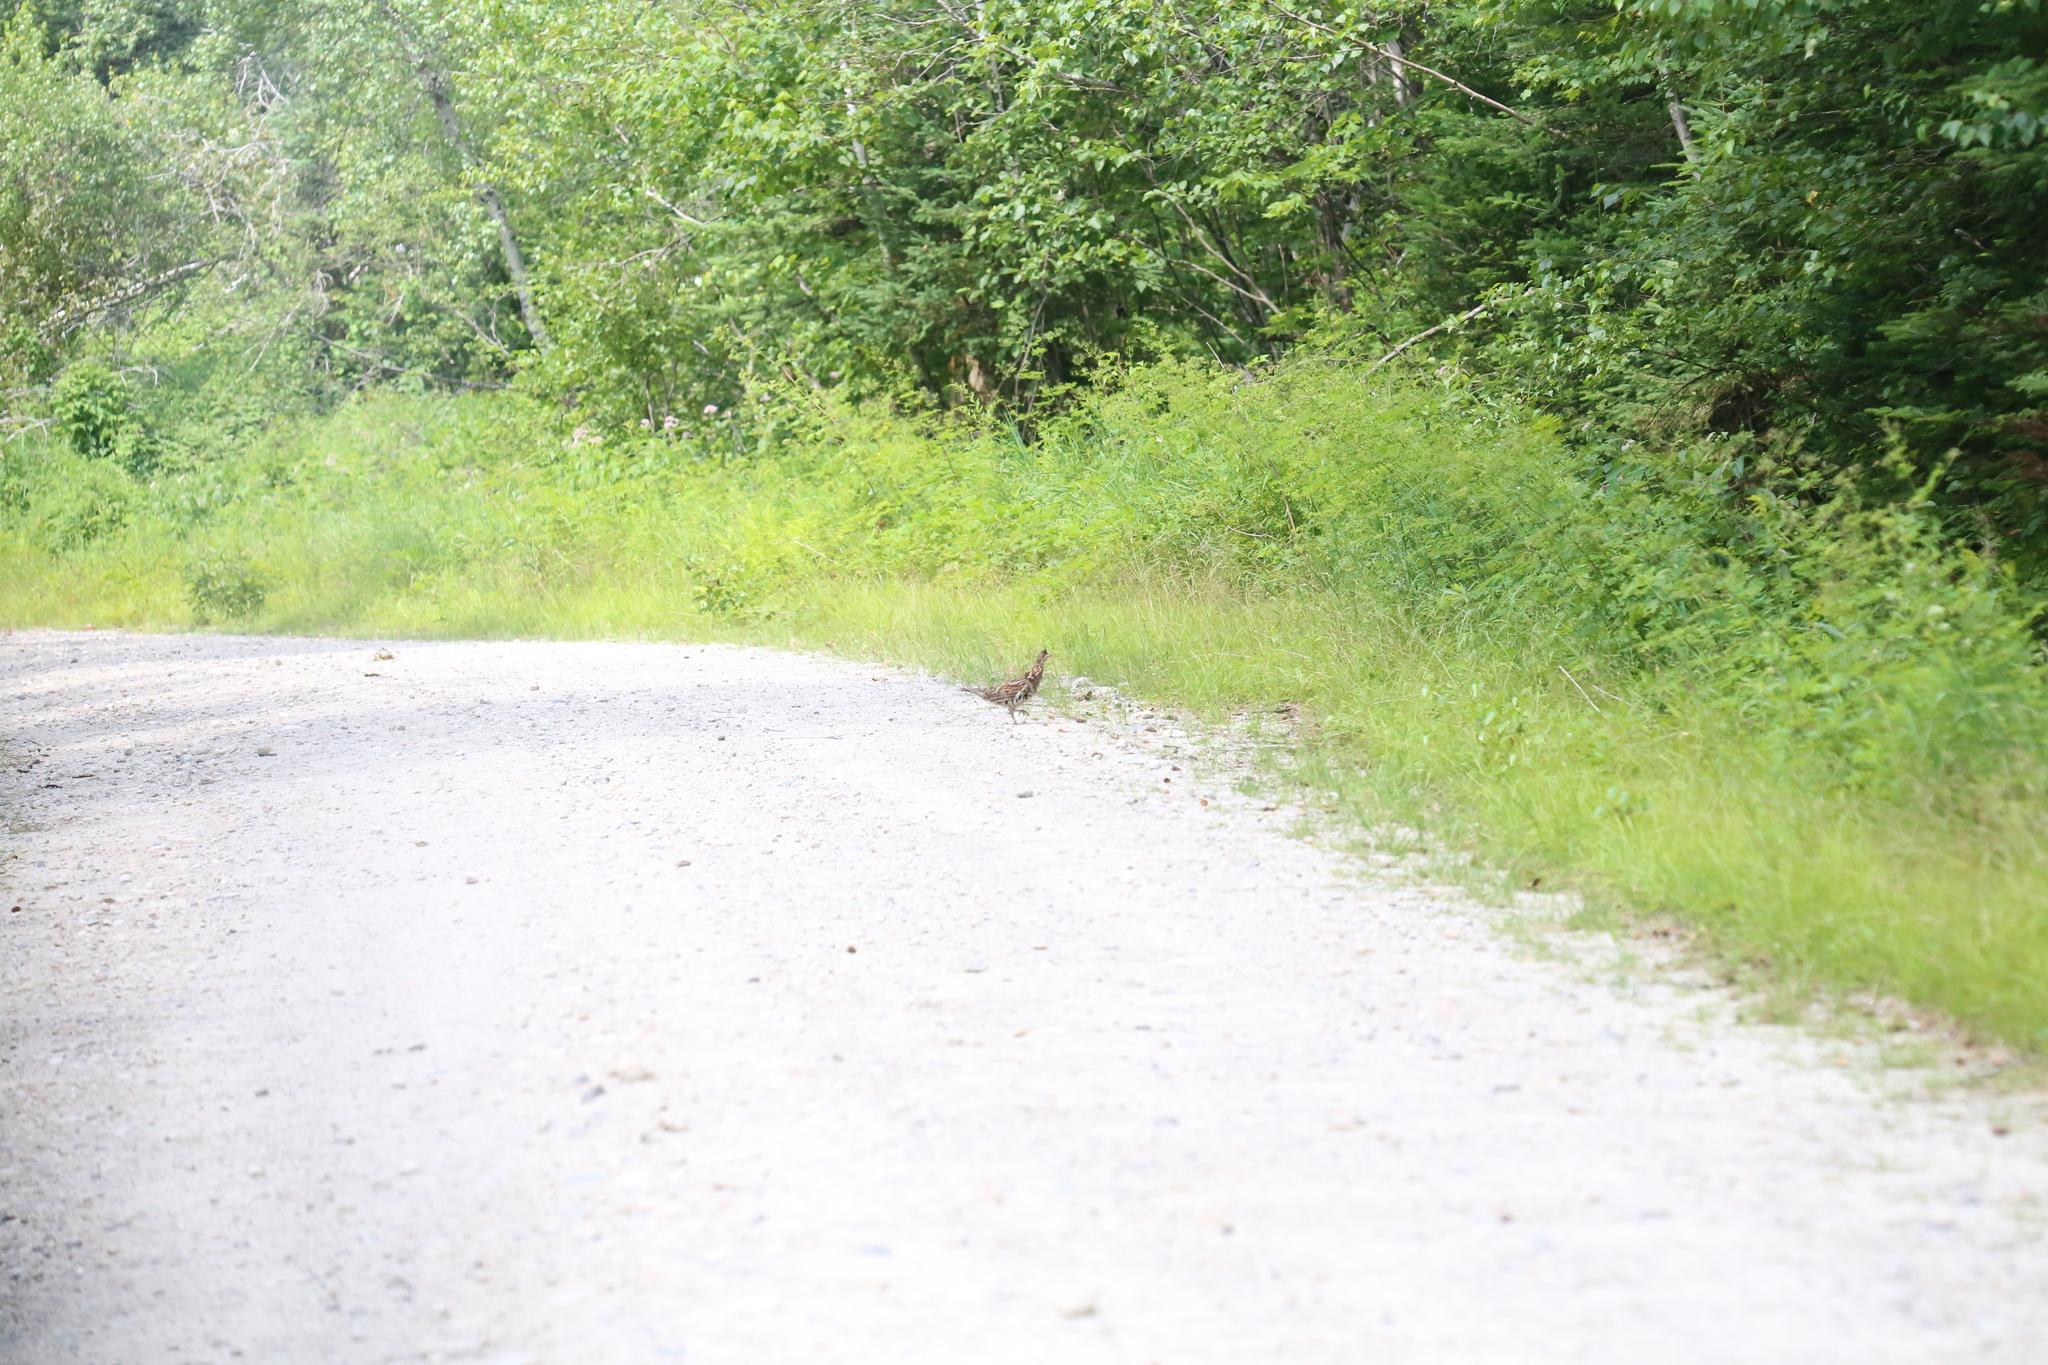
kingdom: Animalia
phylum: Chordata
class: Aves
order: Galliformes
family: Phasianidae
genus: Bonasa
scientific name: Bonasa umbellus
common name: Ruffed grouse
